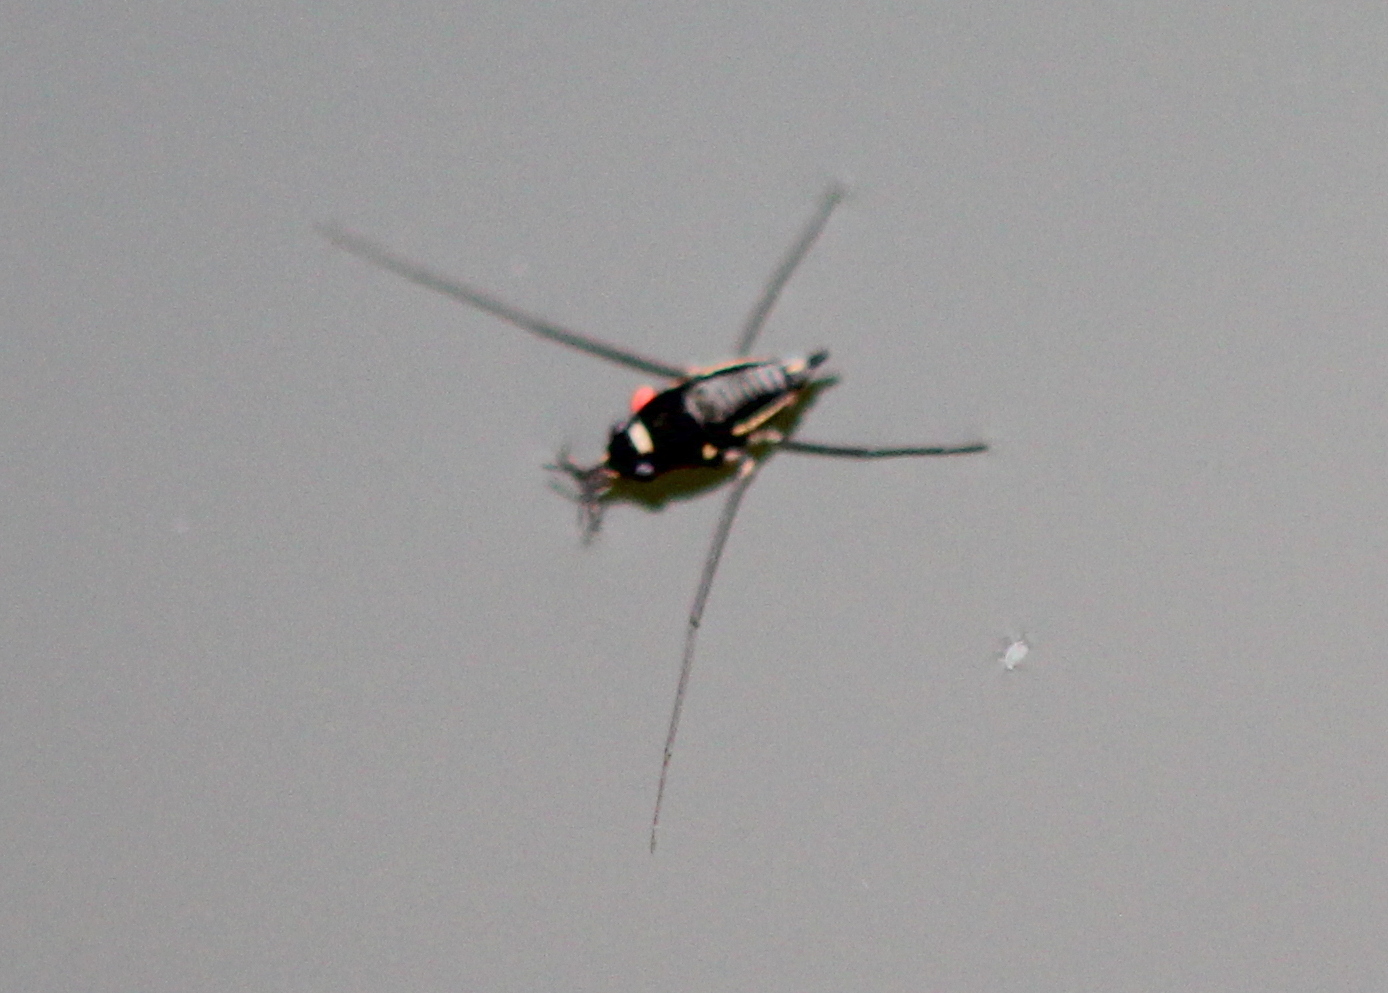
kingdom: Animalia
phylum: Arthropoda
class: Insecta
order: Hemiptera
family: Gerridae
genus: Rheumatobates
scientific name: Rheumatobates
